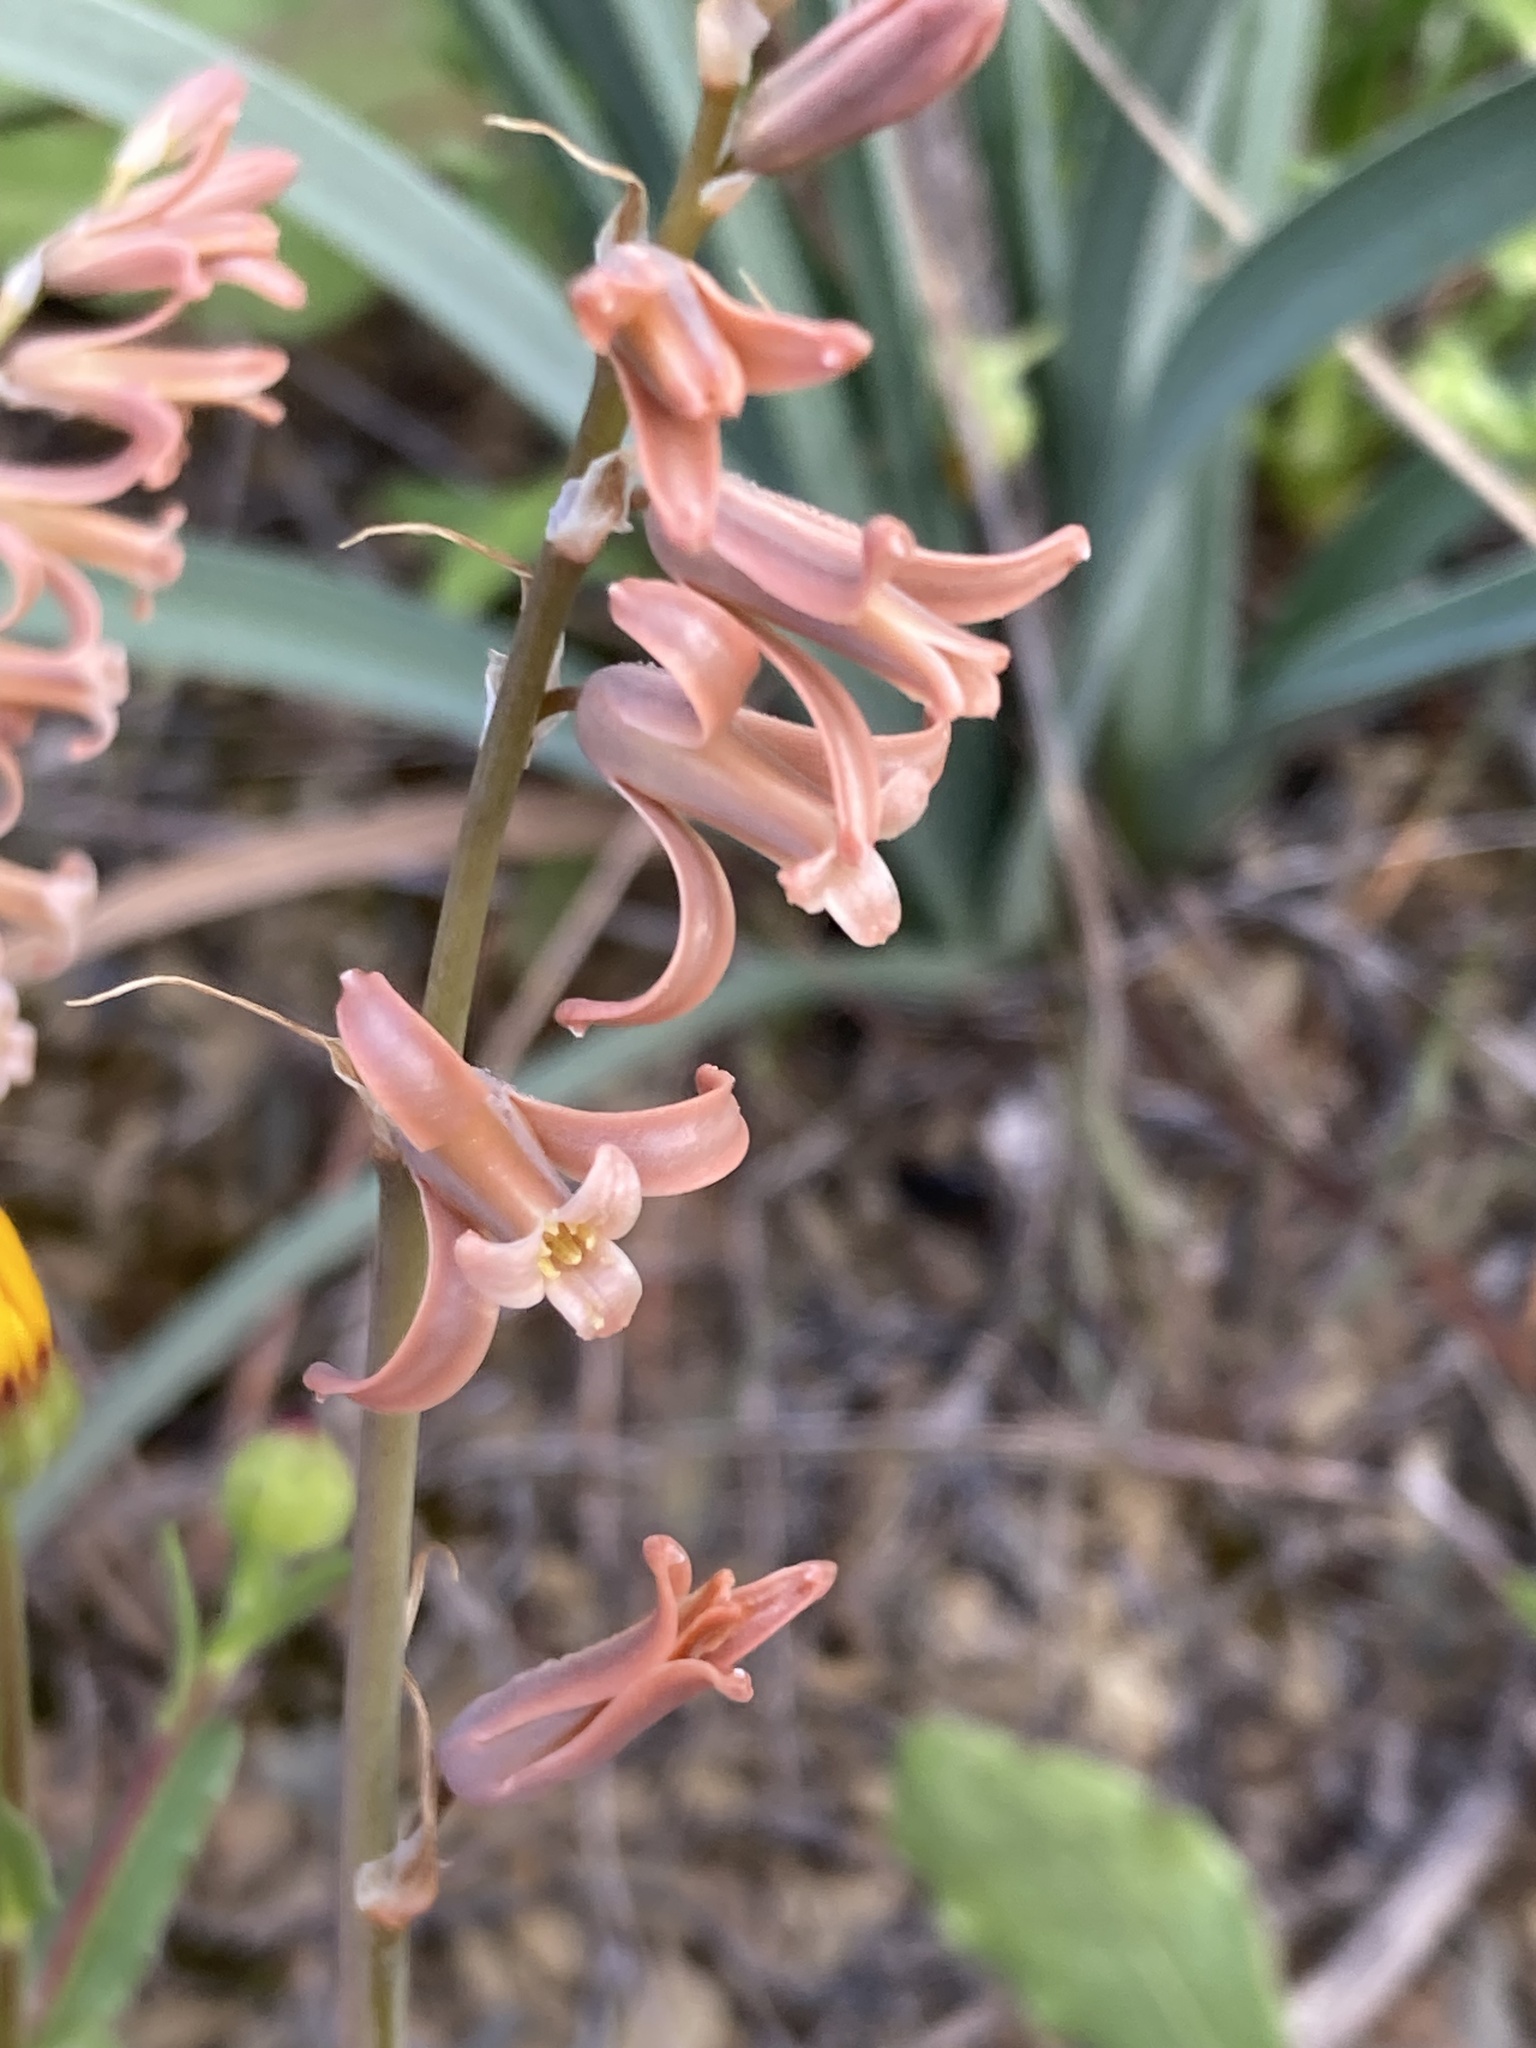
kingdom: Plantae
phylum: Tracheophyta
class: Liliopsida
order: Asparagales
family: Asparagaceae
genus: Dipcadi
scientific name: Dipcadi serotinum
